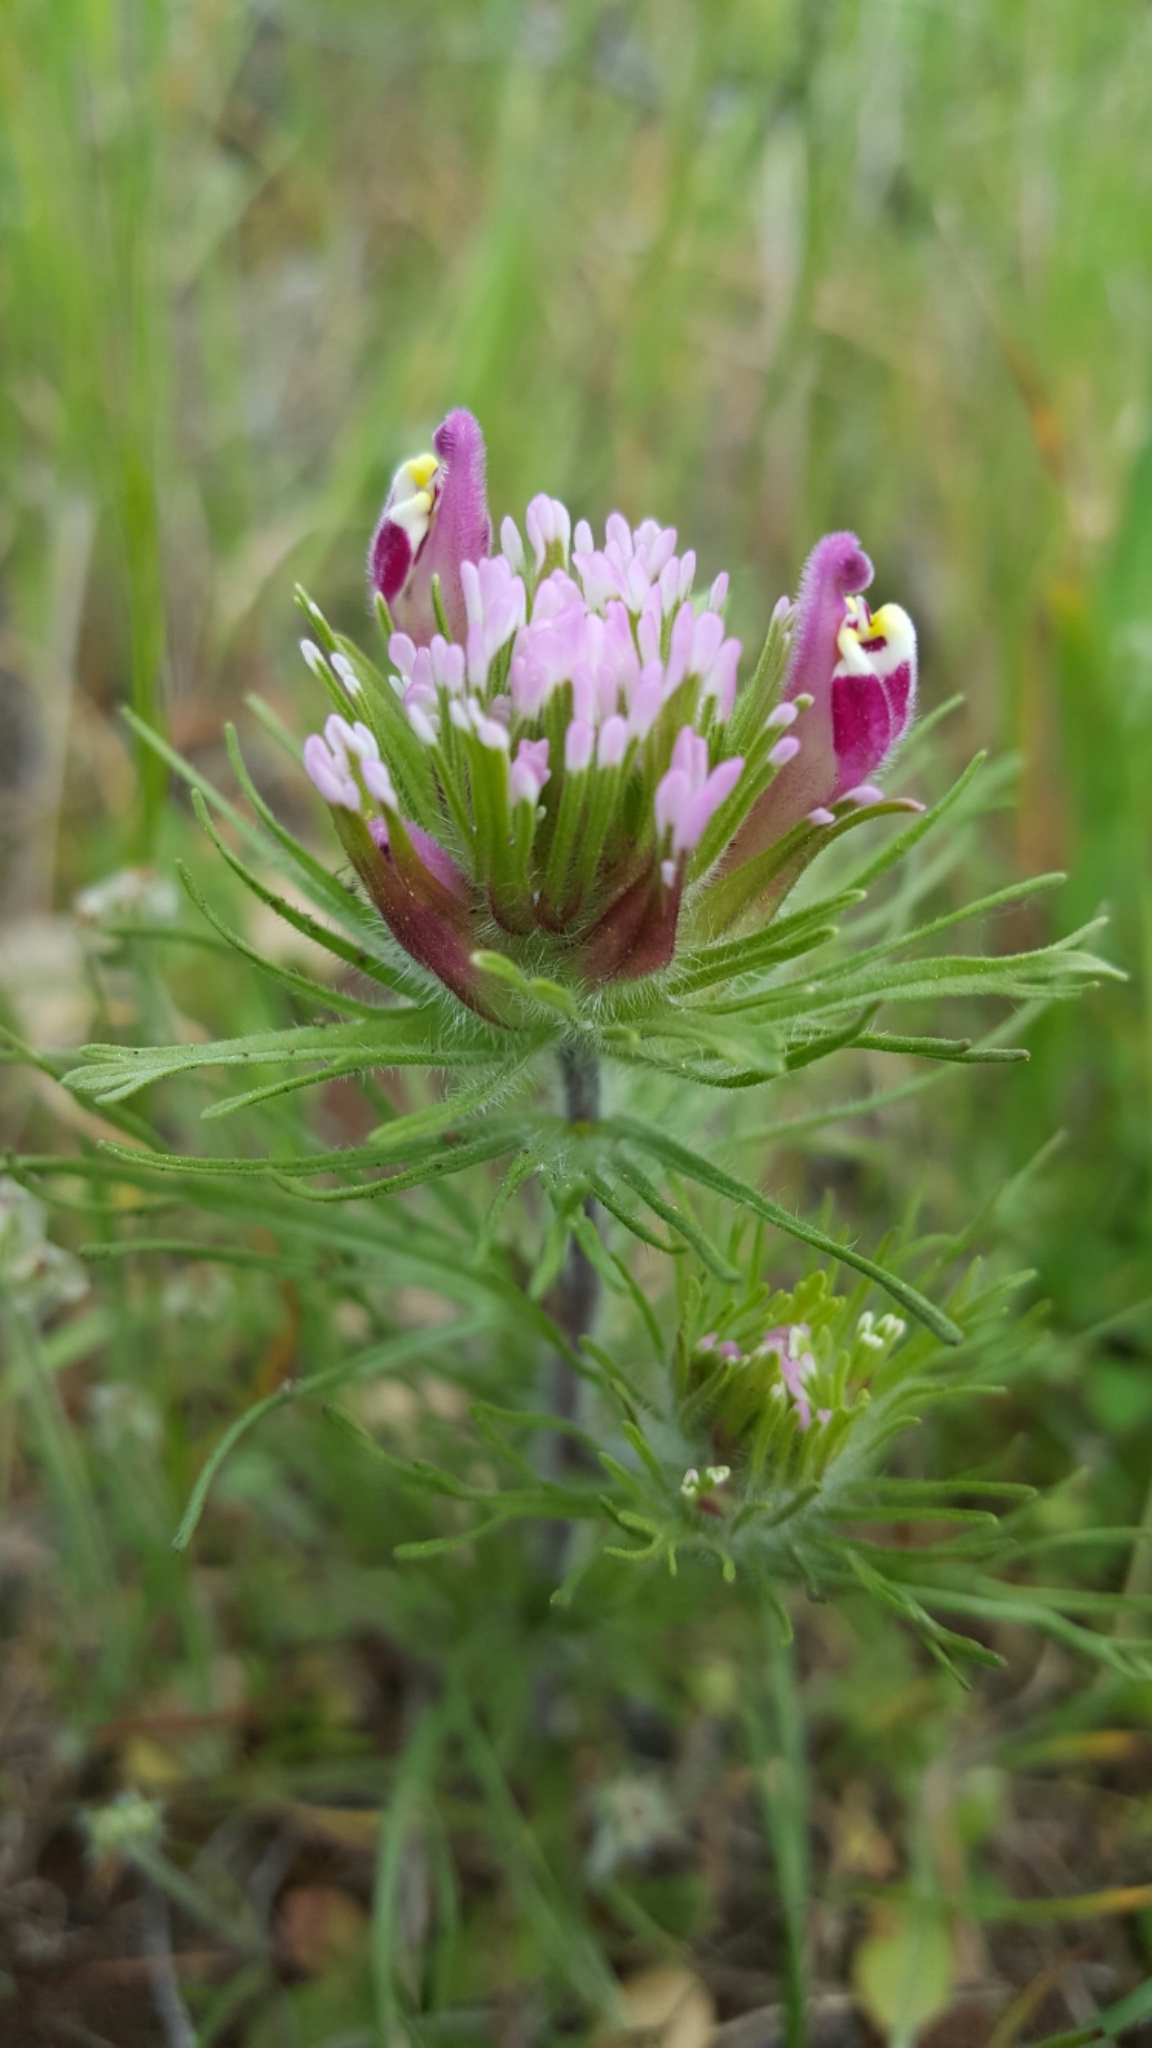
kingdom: Plantae
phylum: Tracheophyta
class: Magnoliopsida
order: Lamiales
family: Orobanchaceae
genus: Castilleja
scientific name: Castilleja exserta
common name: Purple owl-clover
